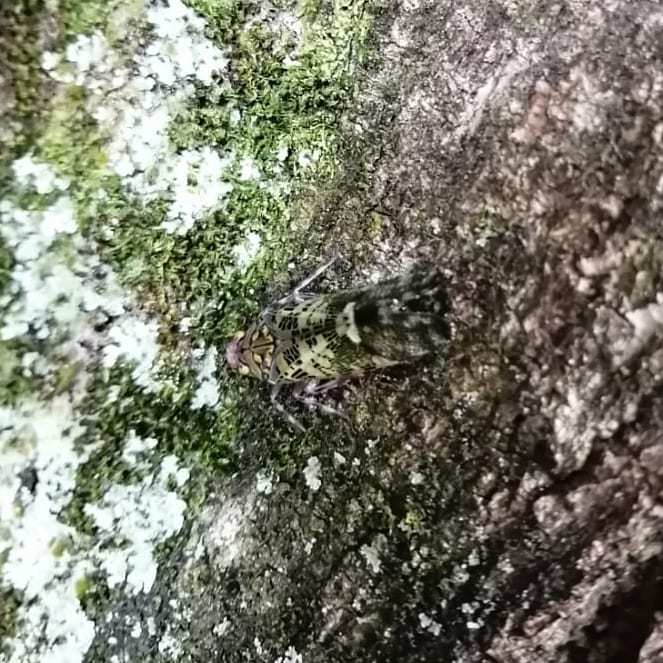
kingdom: Animalia
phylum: Arthropoda
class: Insecta
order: Hemiptera
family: Fulgoridae
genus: Obia
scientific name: Obia tenebrosa
